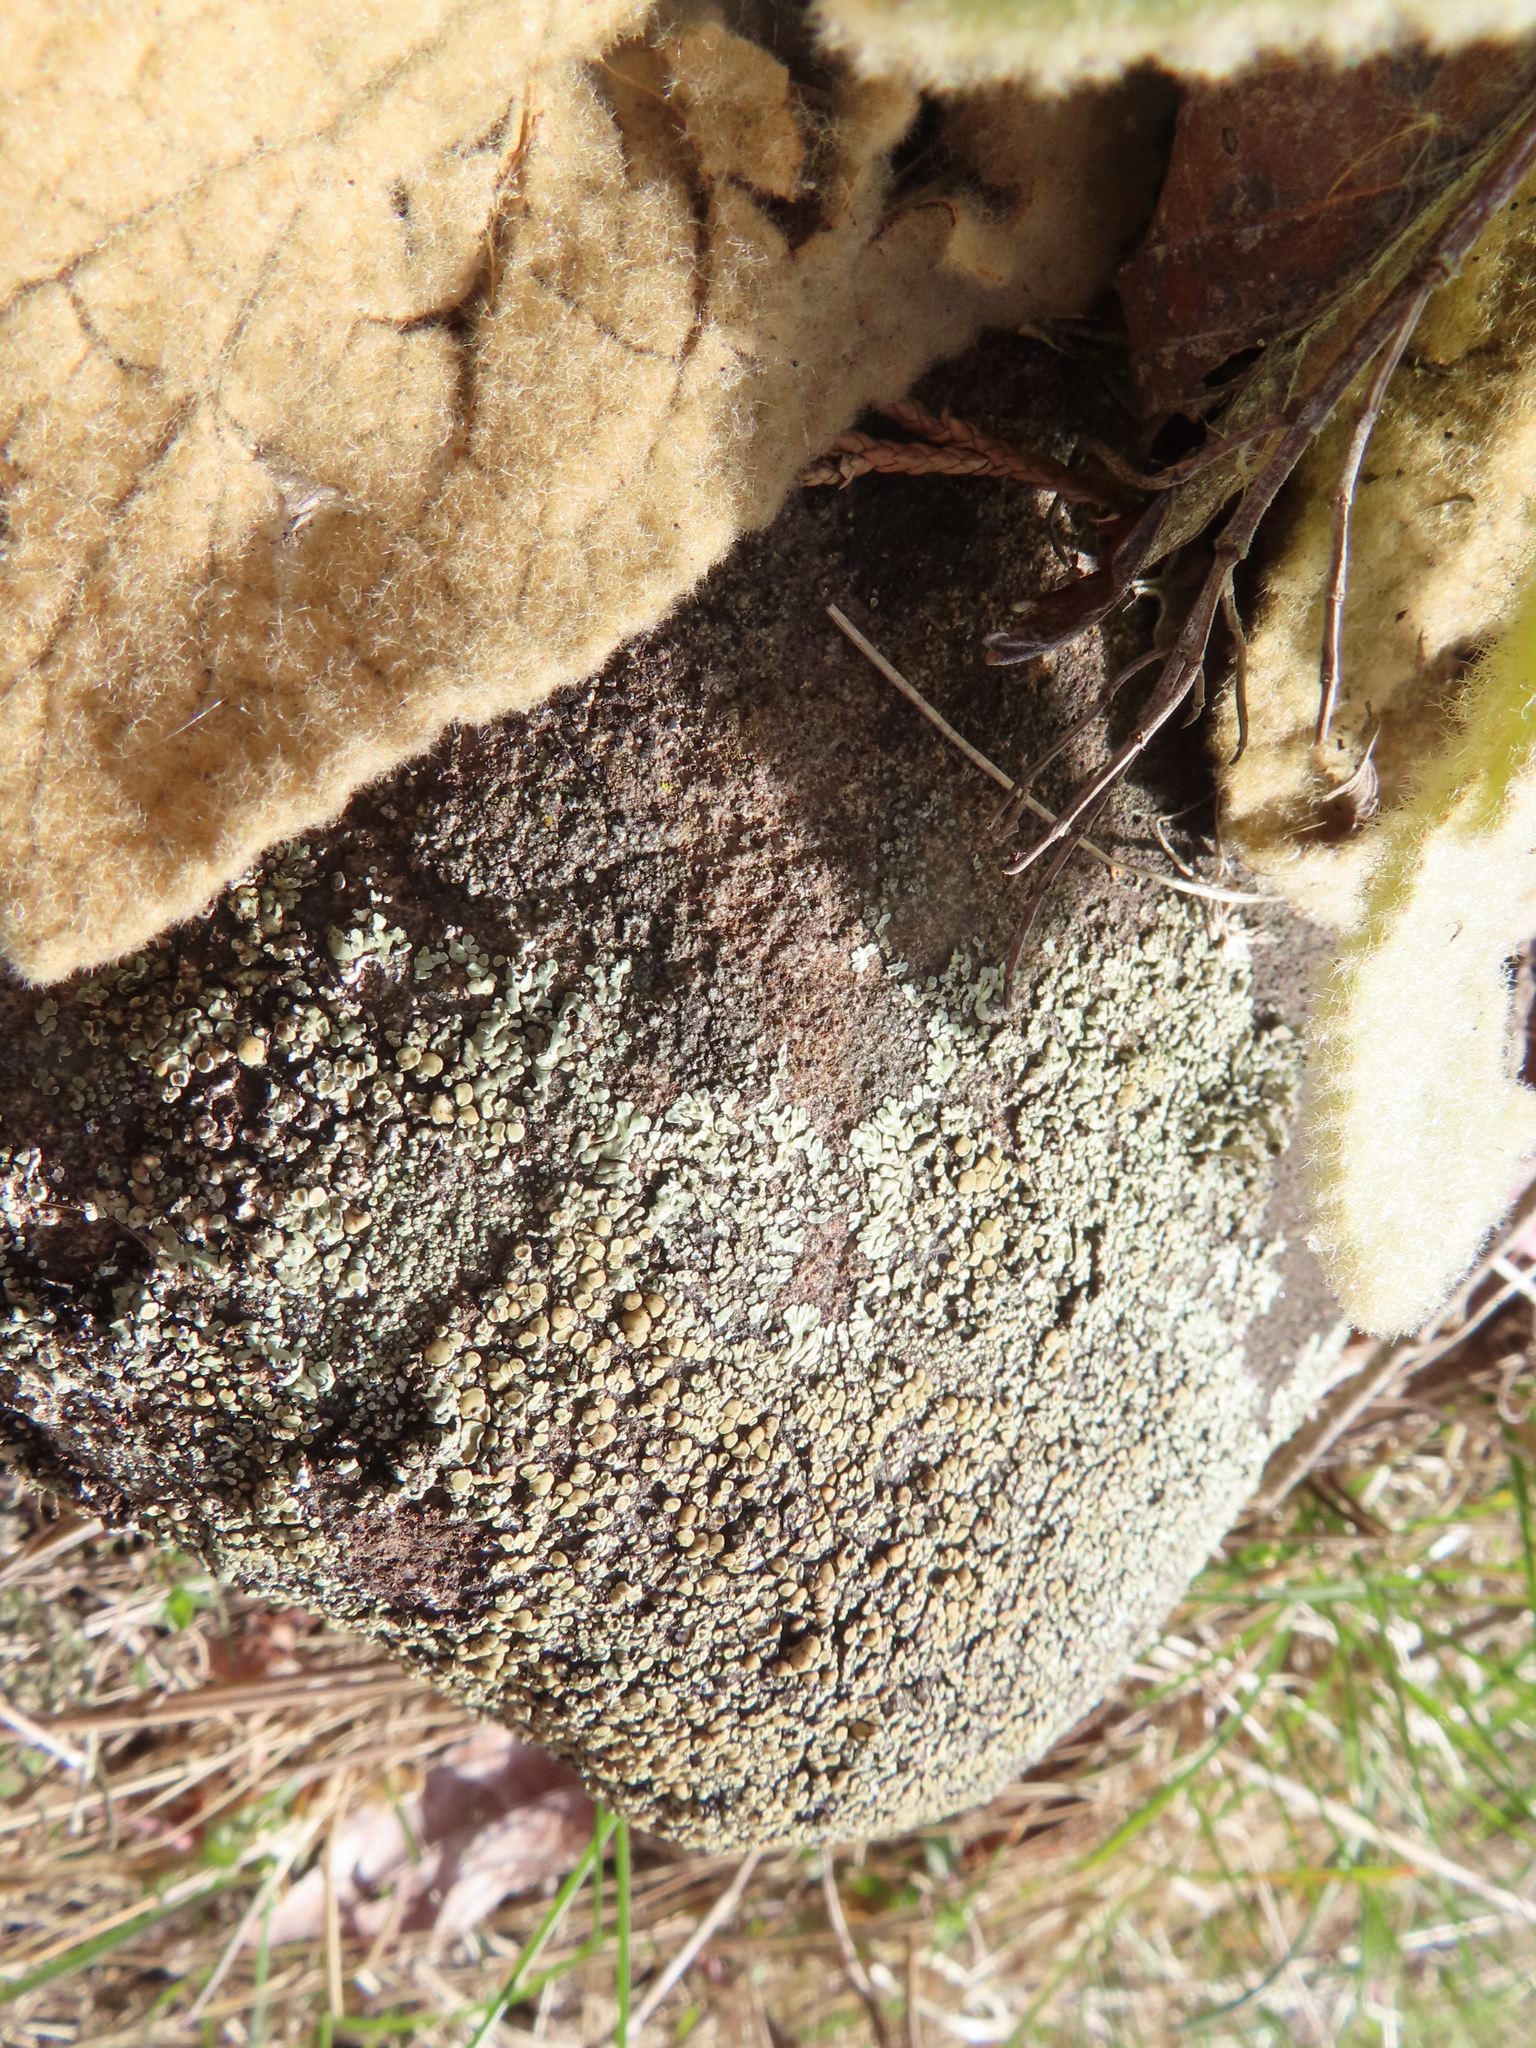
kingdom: Fungi
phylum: Ascomycota
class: Lecanoromycetes
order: Lecanorales
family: Lecanoraceae
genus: Protoparmeliopsis
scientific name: Protoparmeliopsis muralis
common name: Stonewall rim lichen
